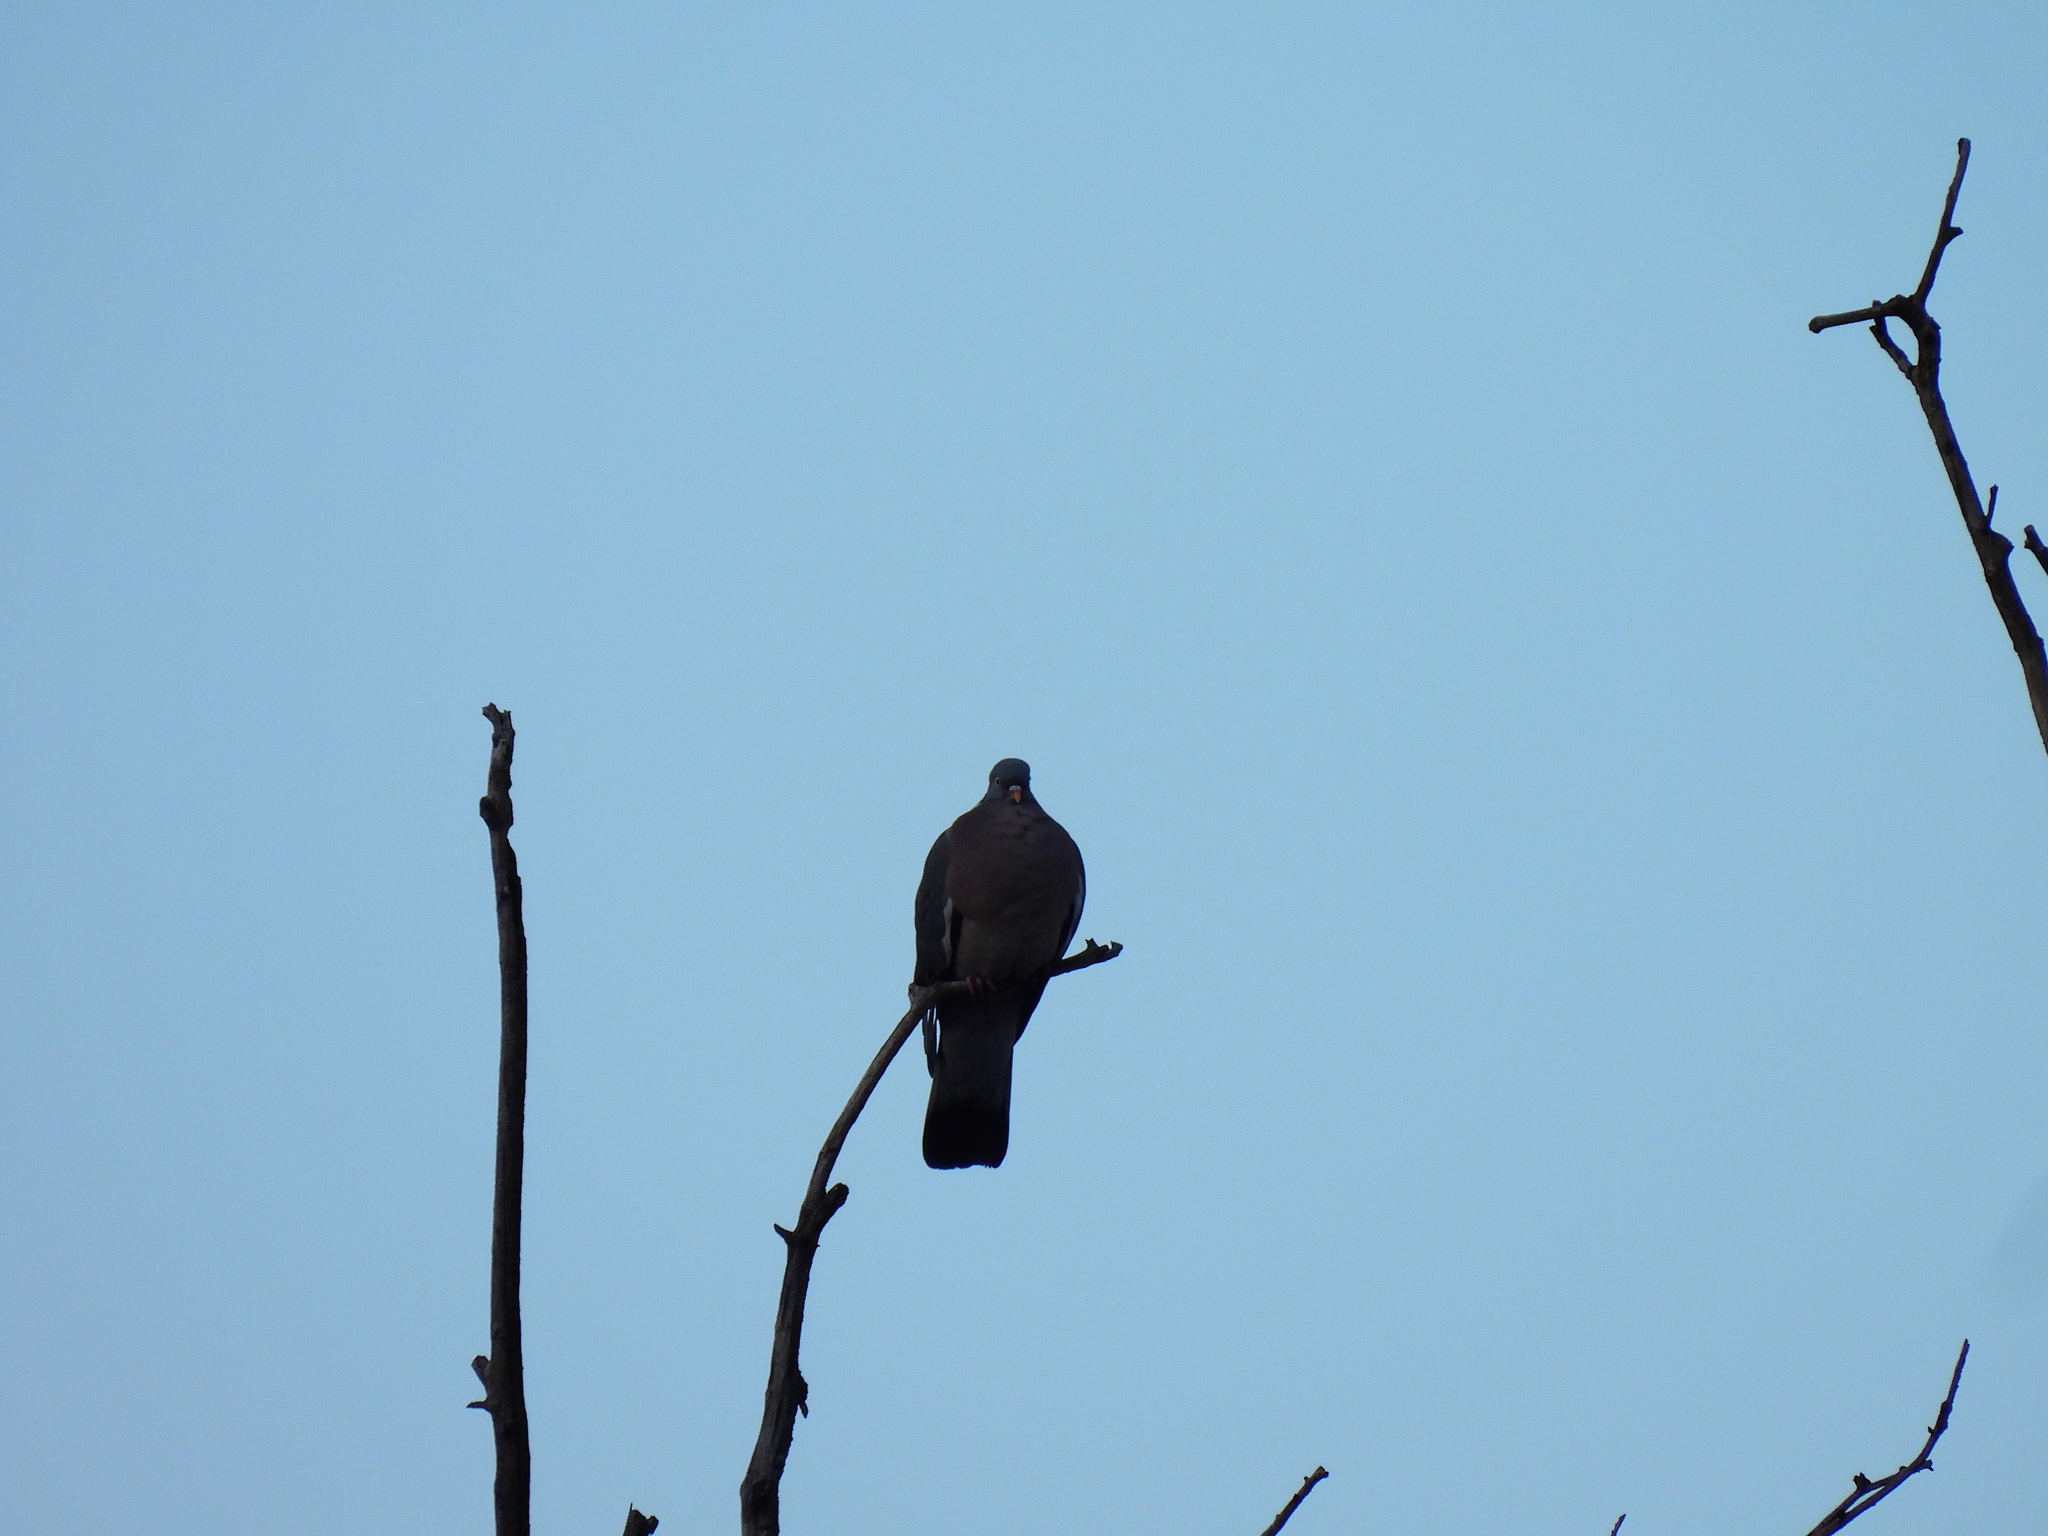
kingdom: Animalia
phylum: Chordata
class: Aves
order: Columbiformes
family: Columbidae
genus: Columba
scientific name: Columba palumbus
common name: Common wood pigeon
